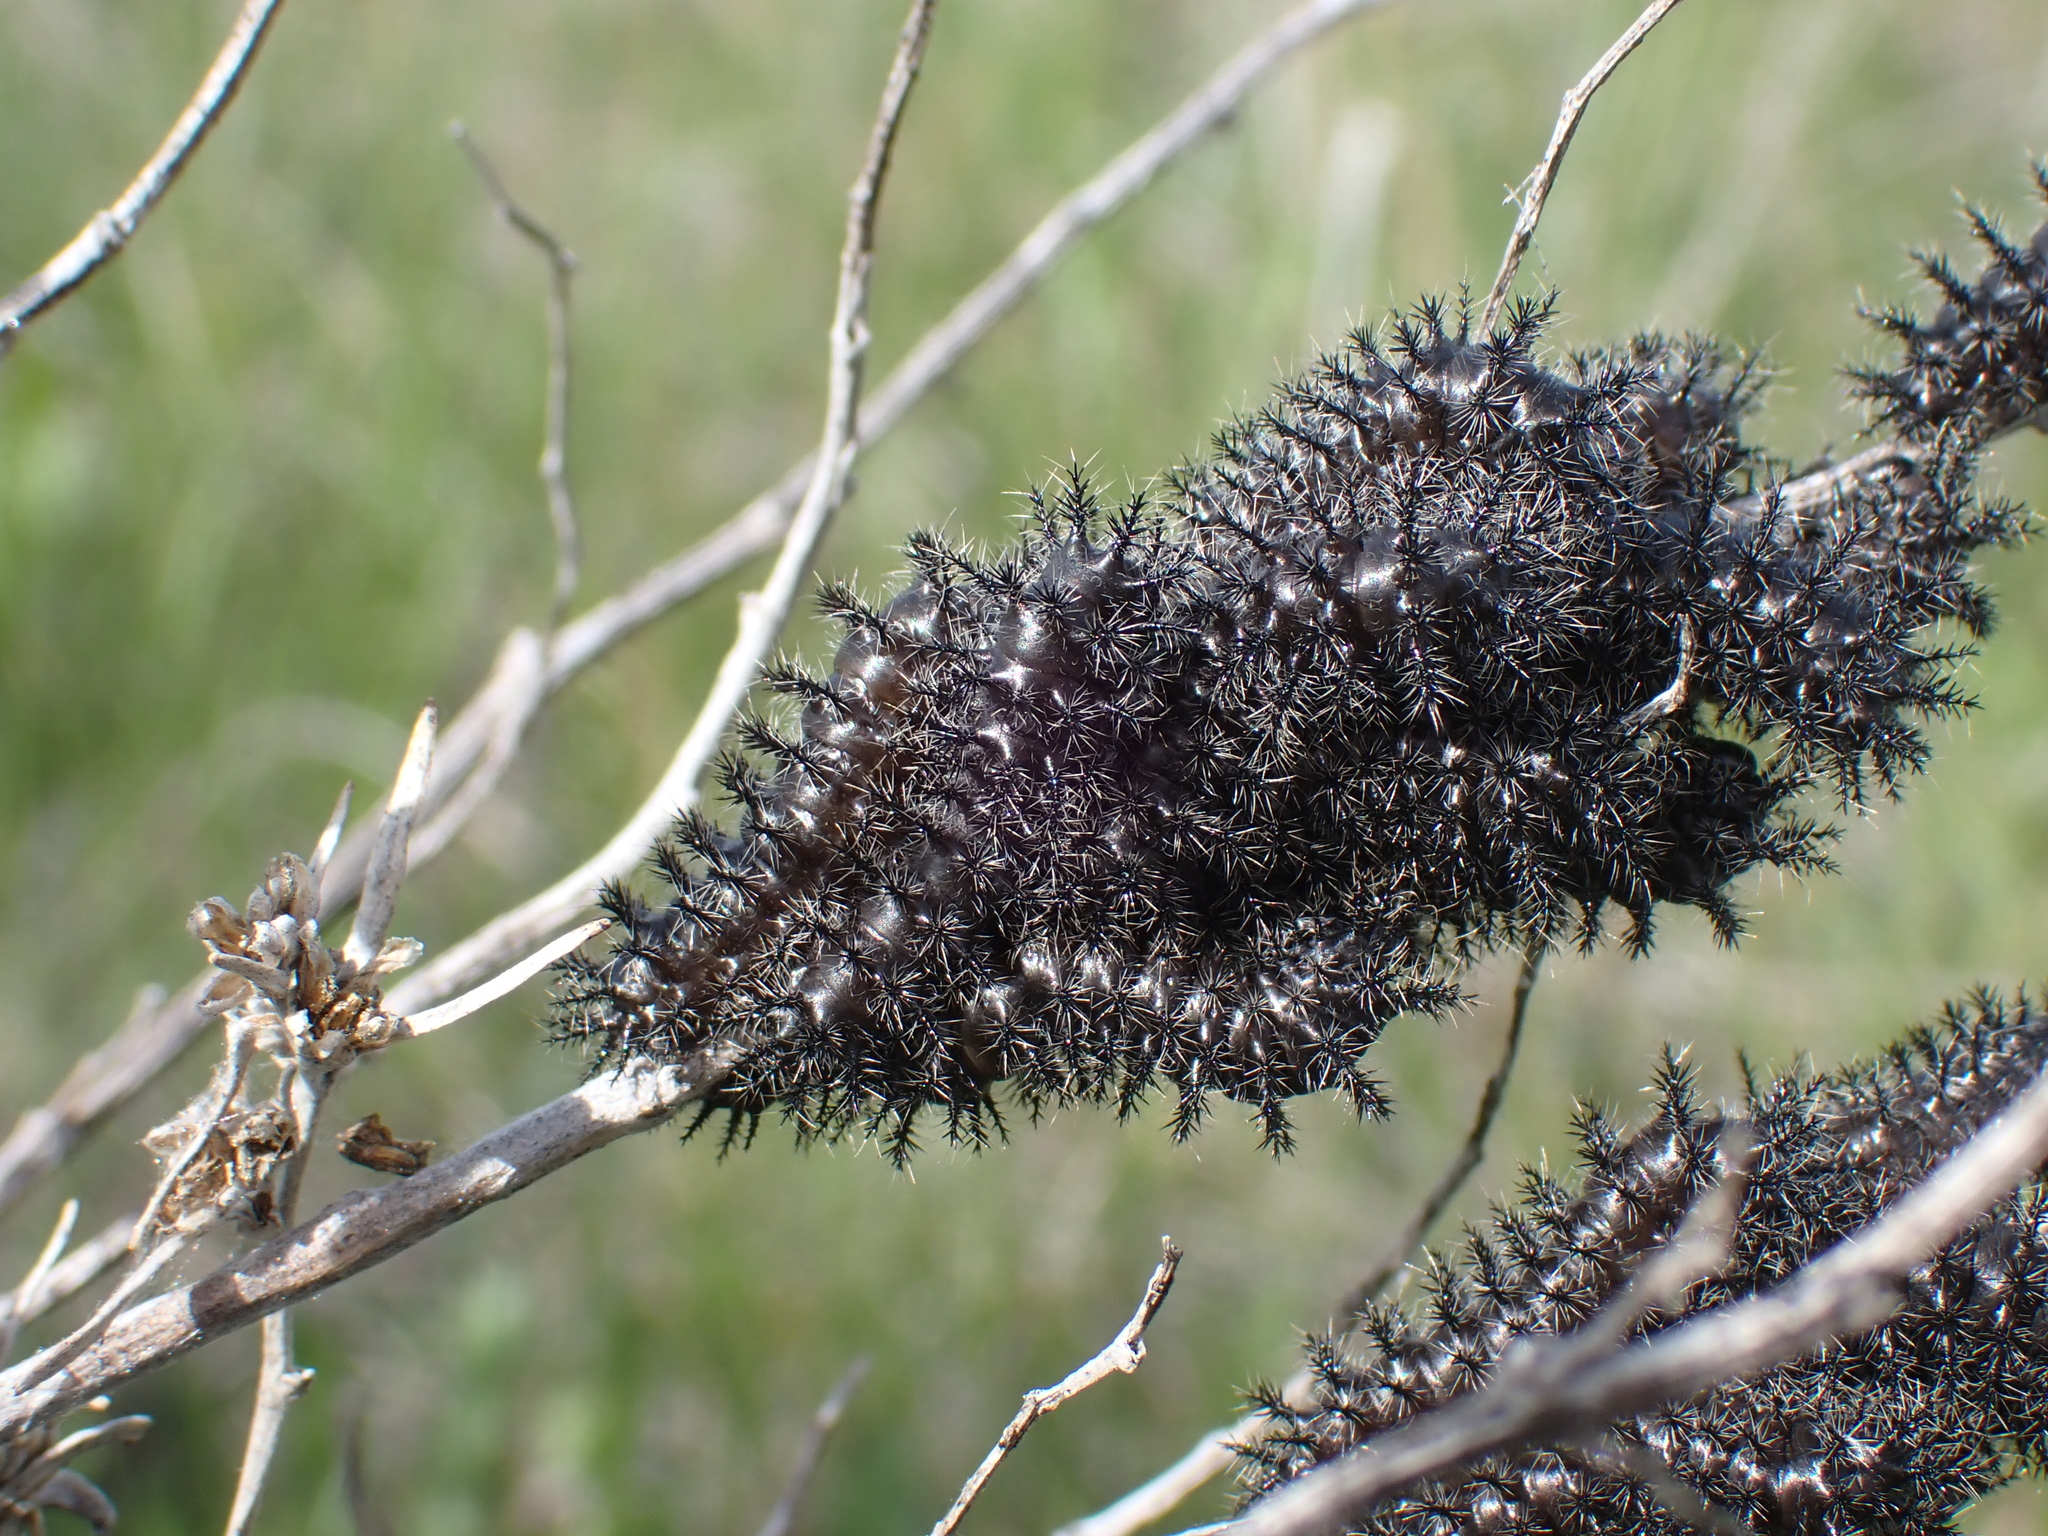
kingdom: Animalia
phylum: Arthropoda
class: Insecta
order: Lepidoptera
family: Saturniidae
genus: Hemileuca
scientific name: Hemileuca hera
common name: Hera sheepmoth
